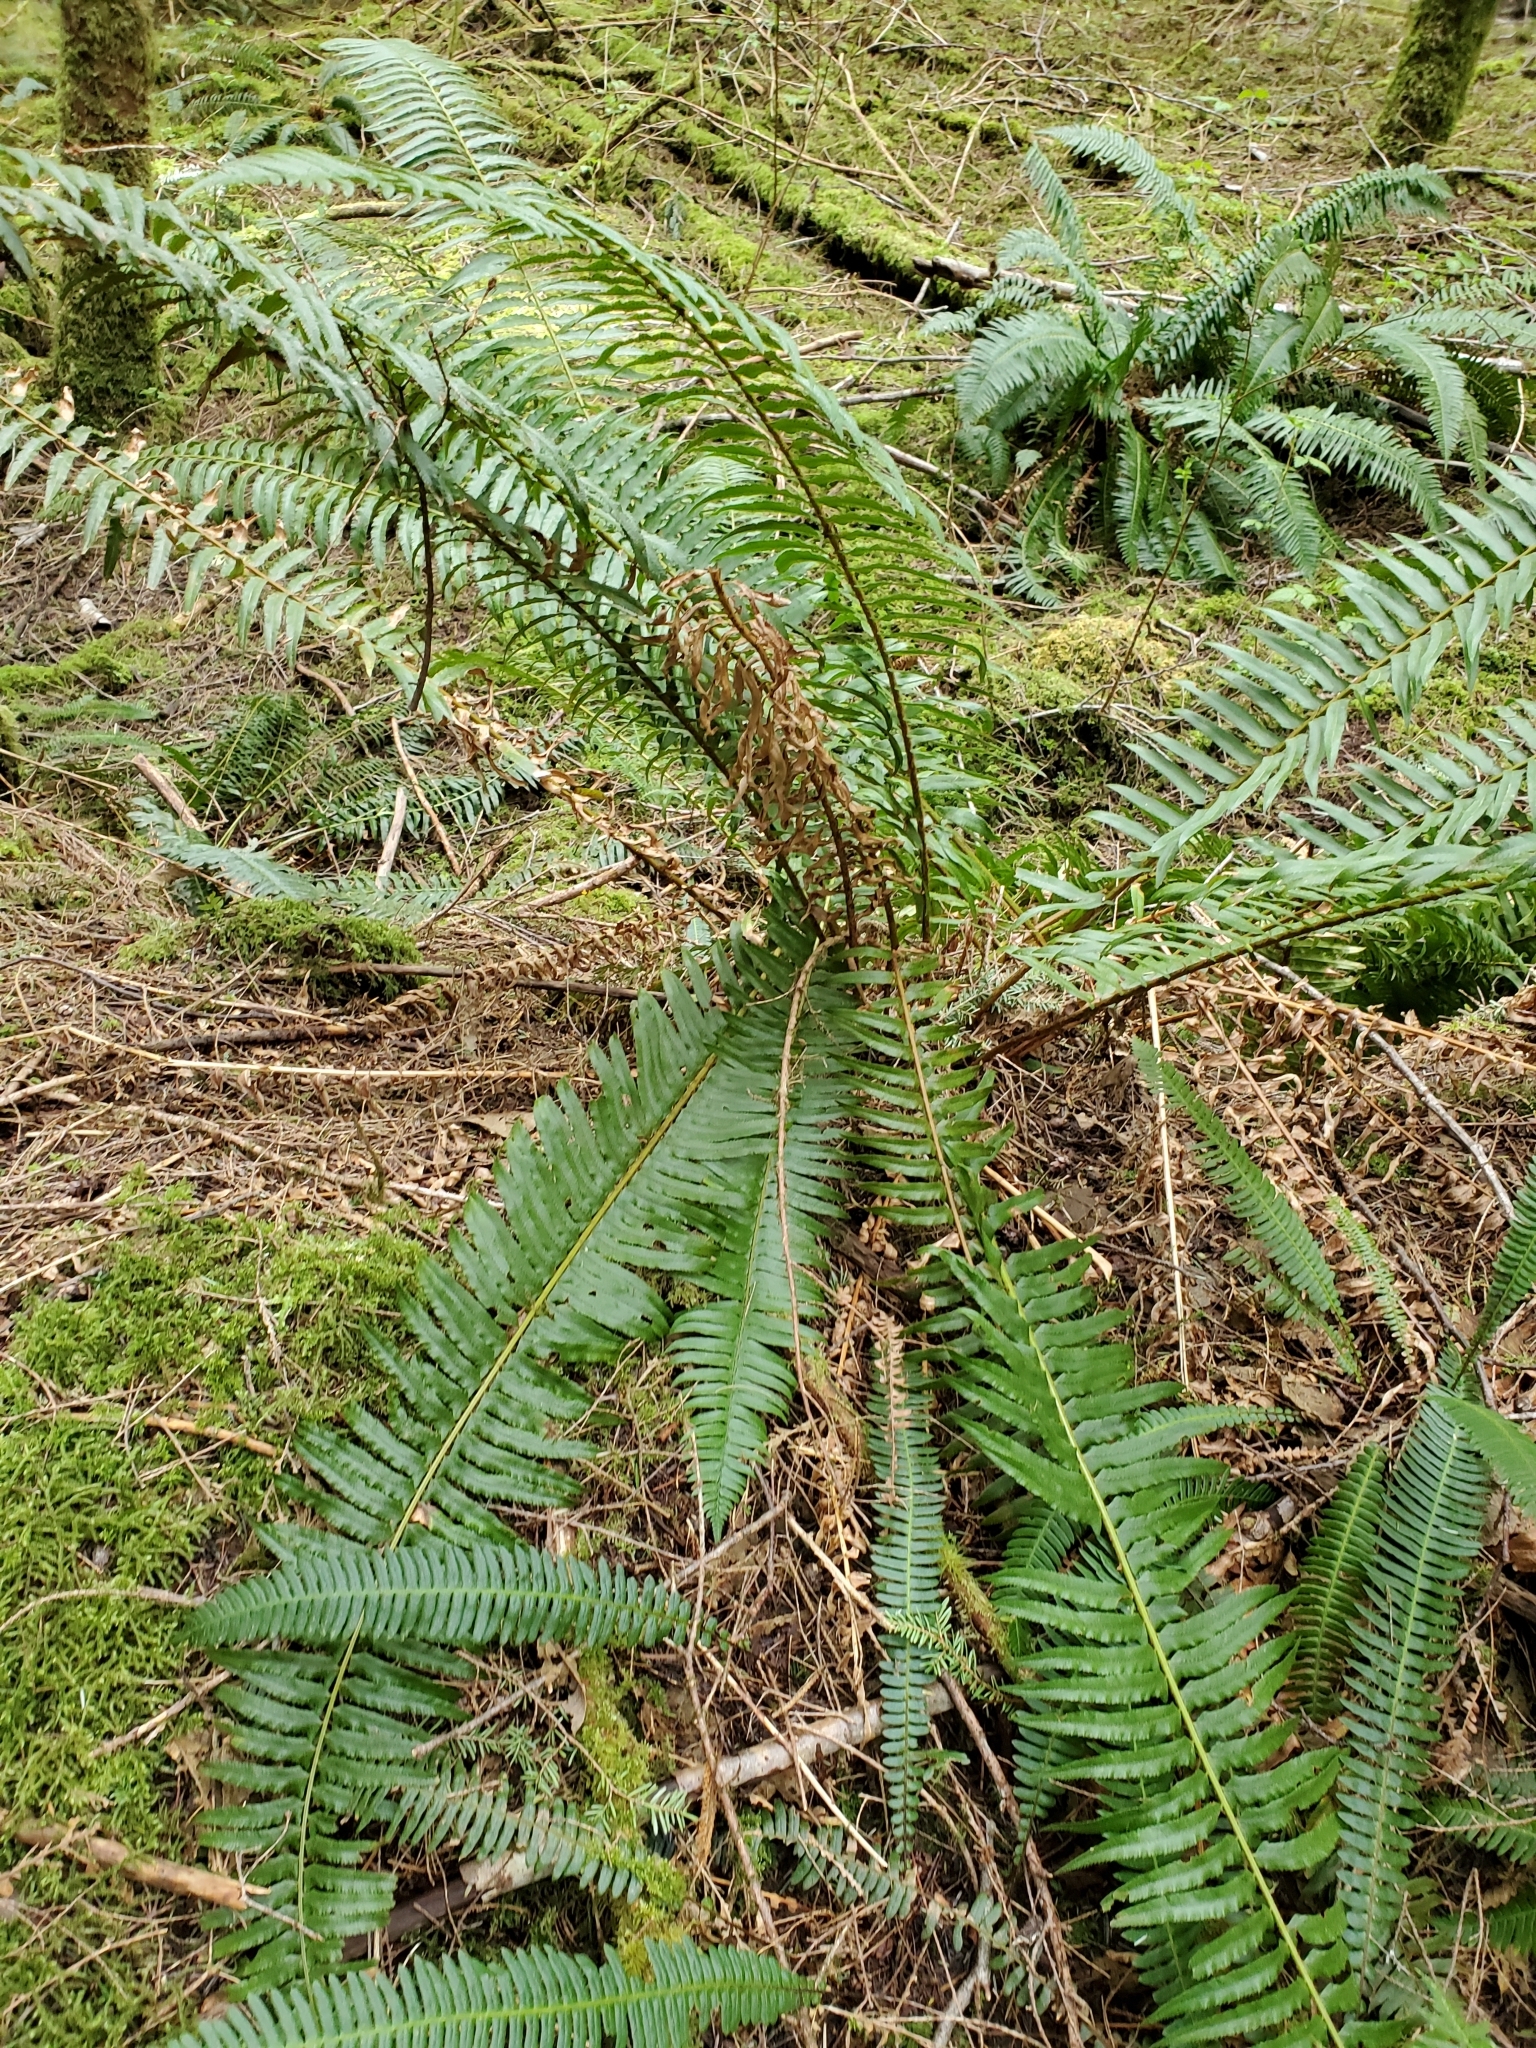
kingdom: Plantae
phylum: Tracheophyta
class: Polypodiopsida
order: Polypodiales
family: Dryopteridaceae
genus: Polystichum
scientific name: Polystichum munitum
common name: Western sword-fern
